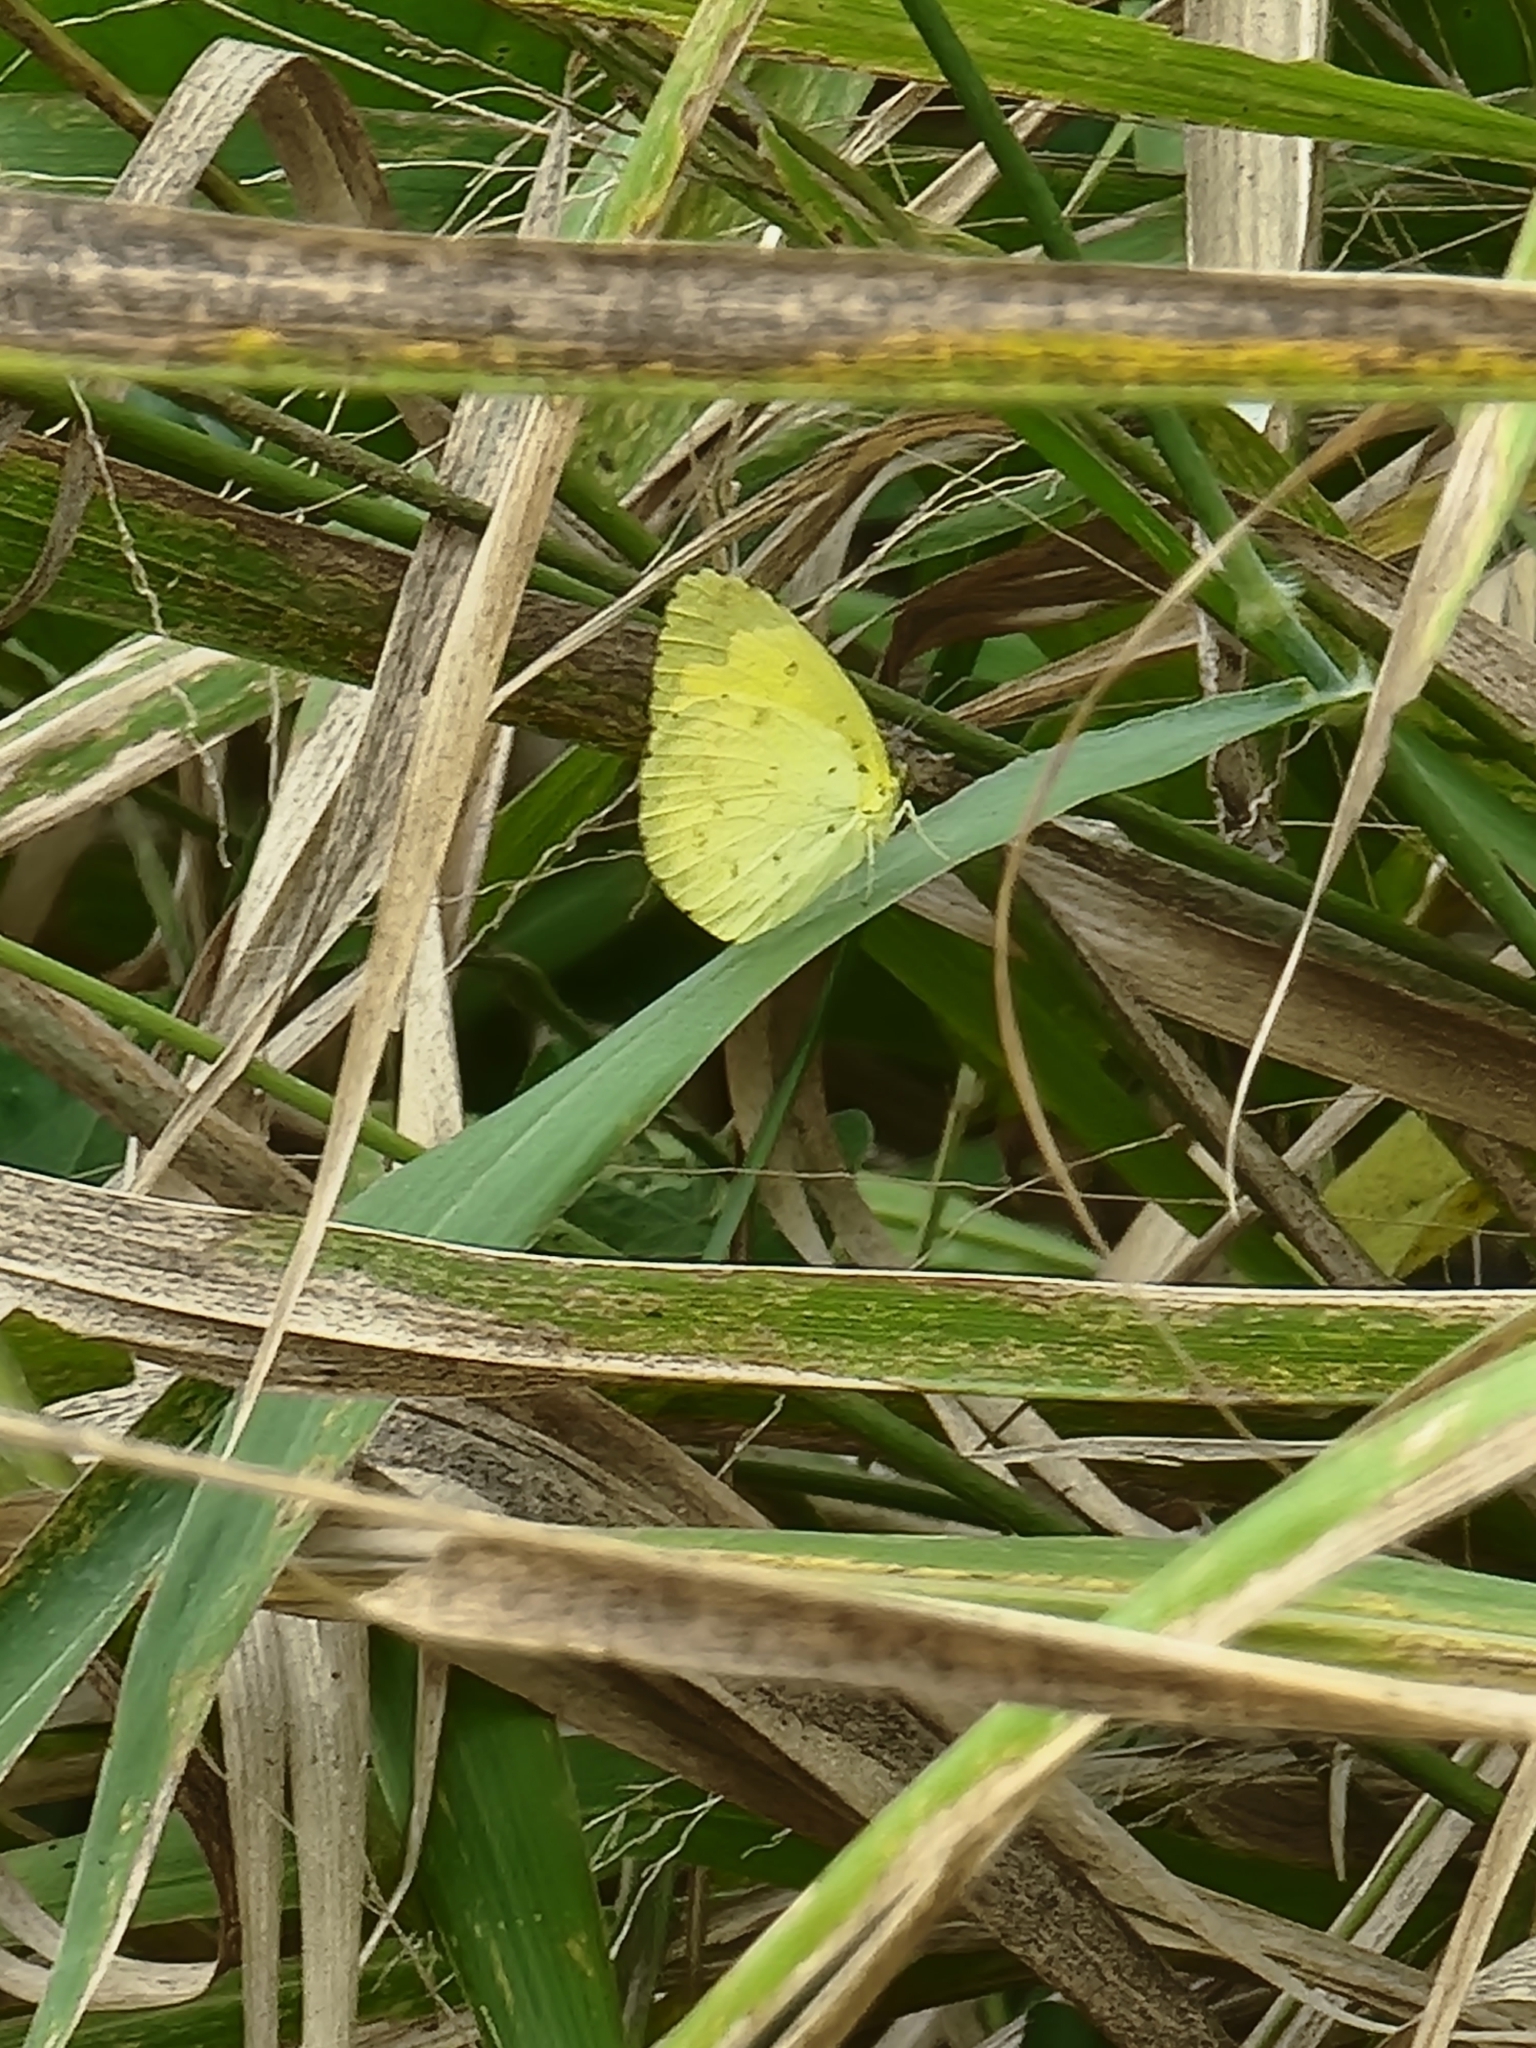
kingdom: Animalia
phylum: Arthropoda
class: Insecta
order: Lepidoptera
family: Pieridae
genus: Eurema
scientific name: Eurema hecabe
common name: Pale grass yellow
